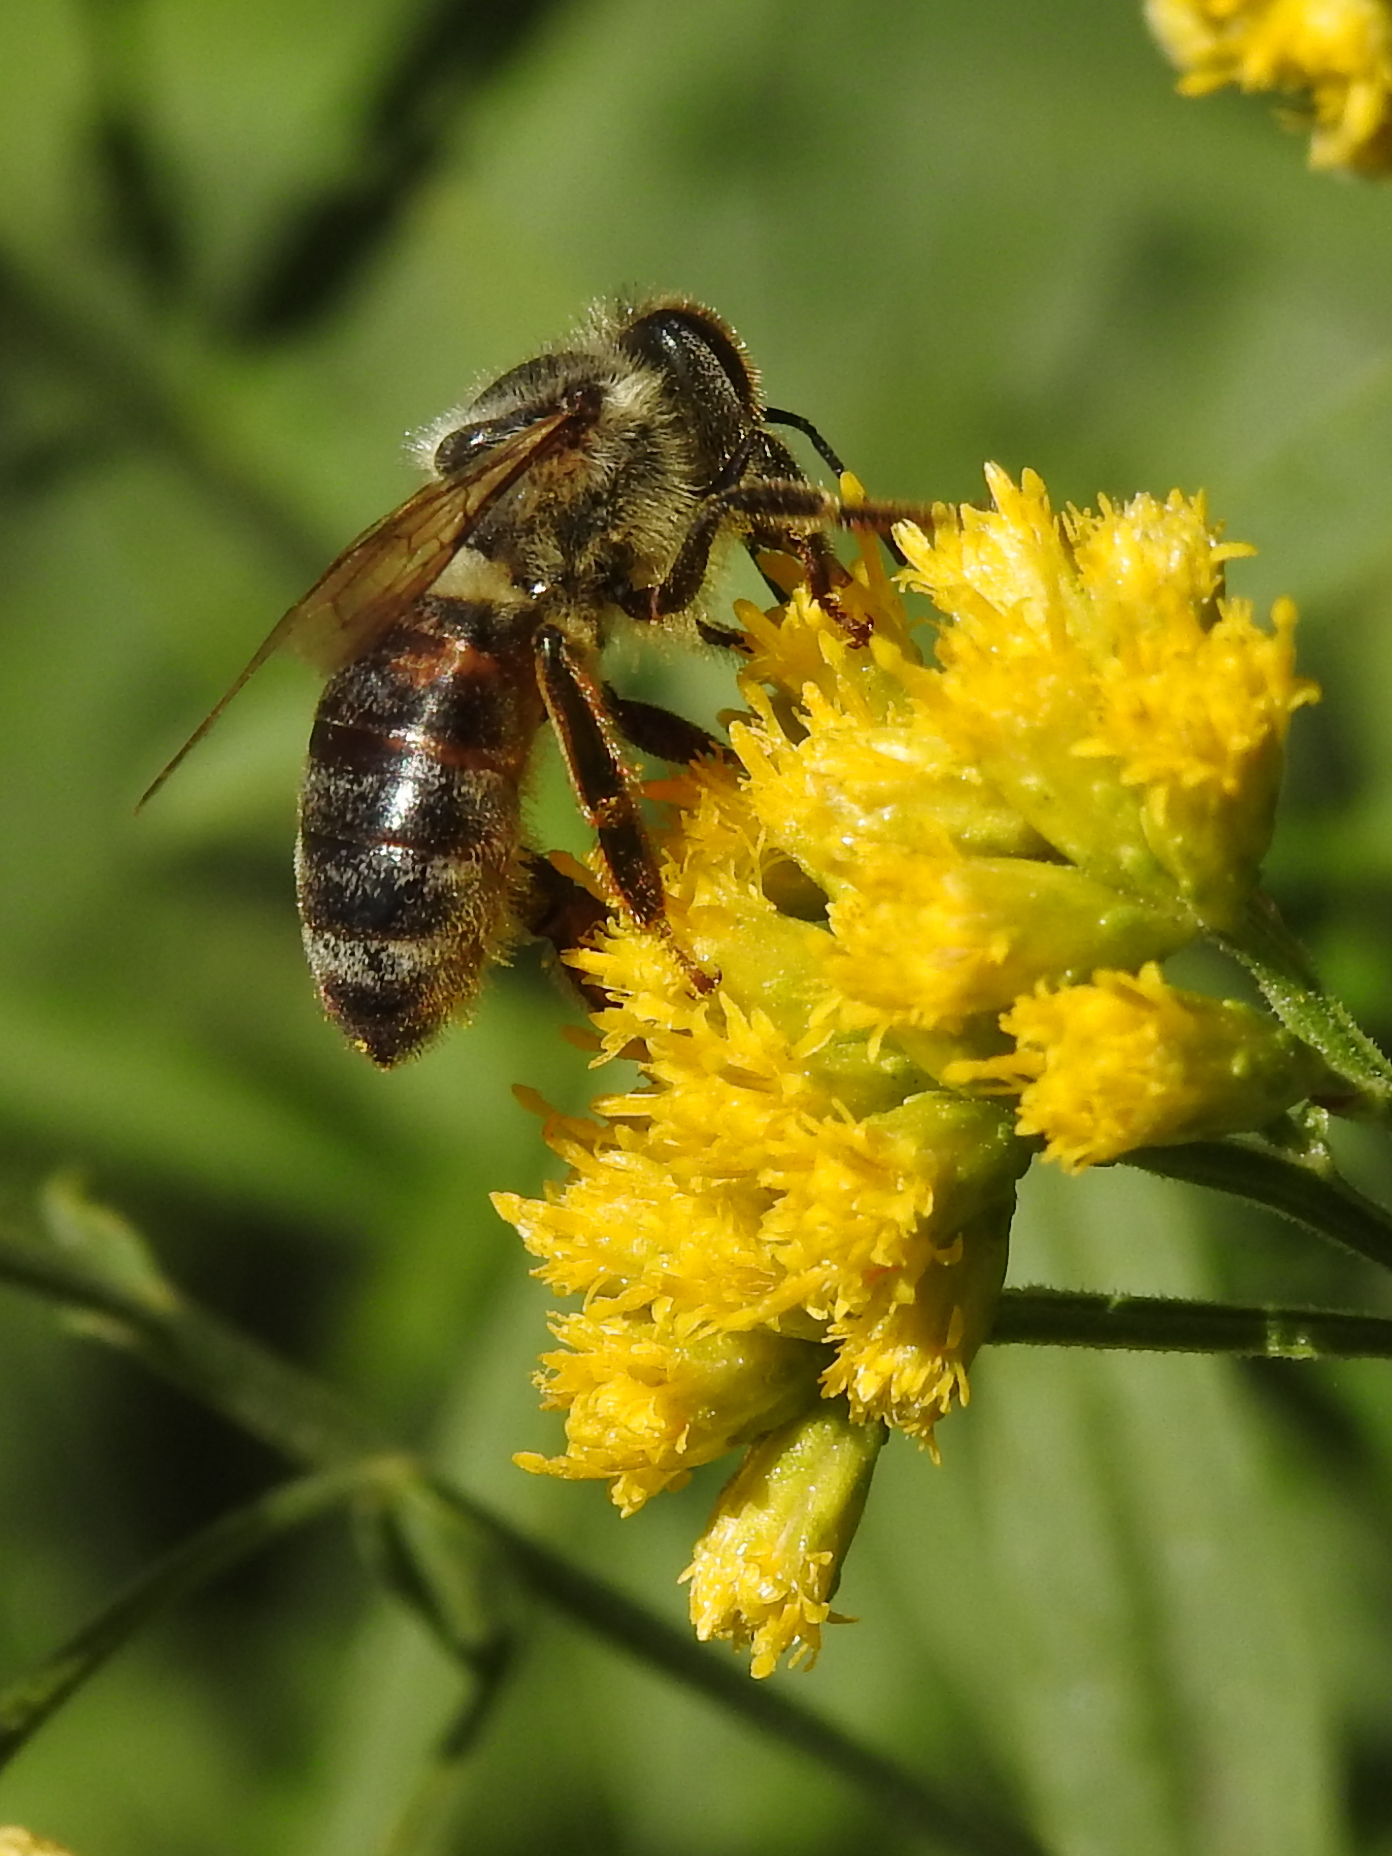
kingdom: Animalia
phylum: Arthropoda
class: Insecta
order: Hymenoptera
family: Apidae
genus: Apis
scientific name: Apis mellifera
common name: Honey bee
